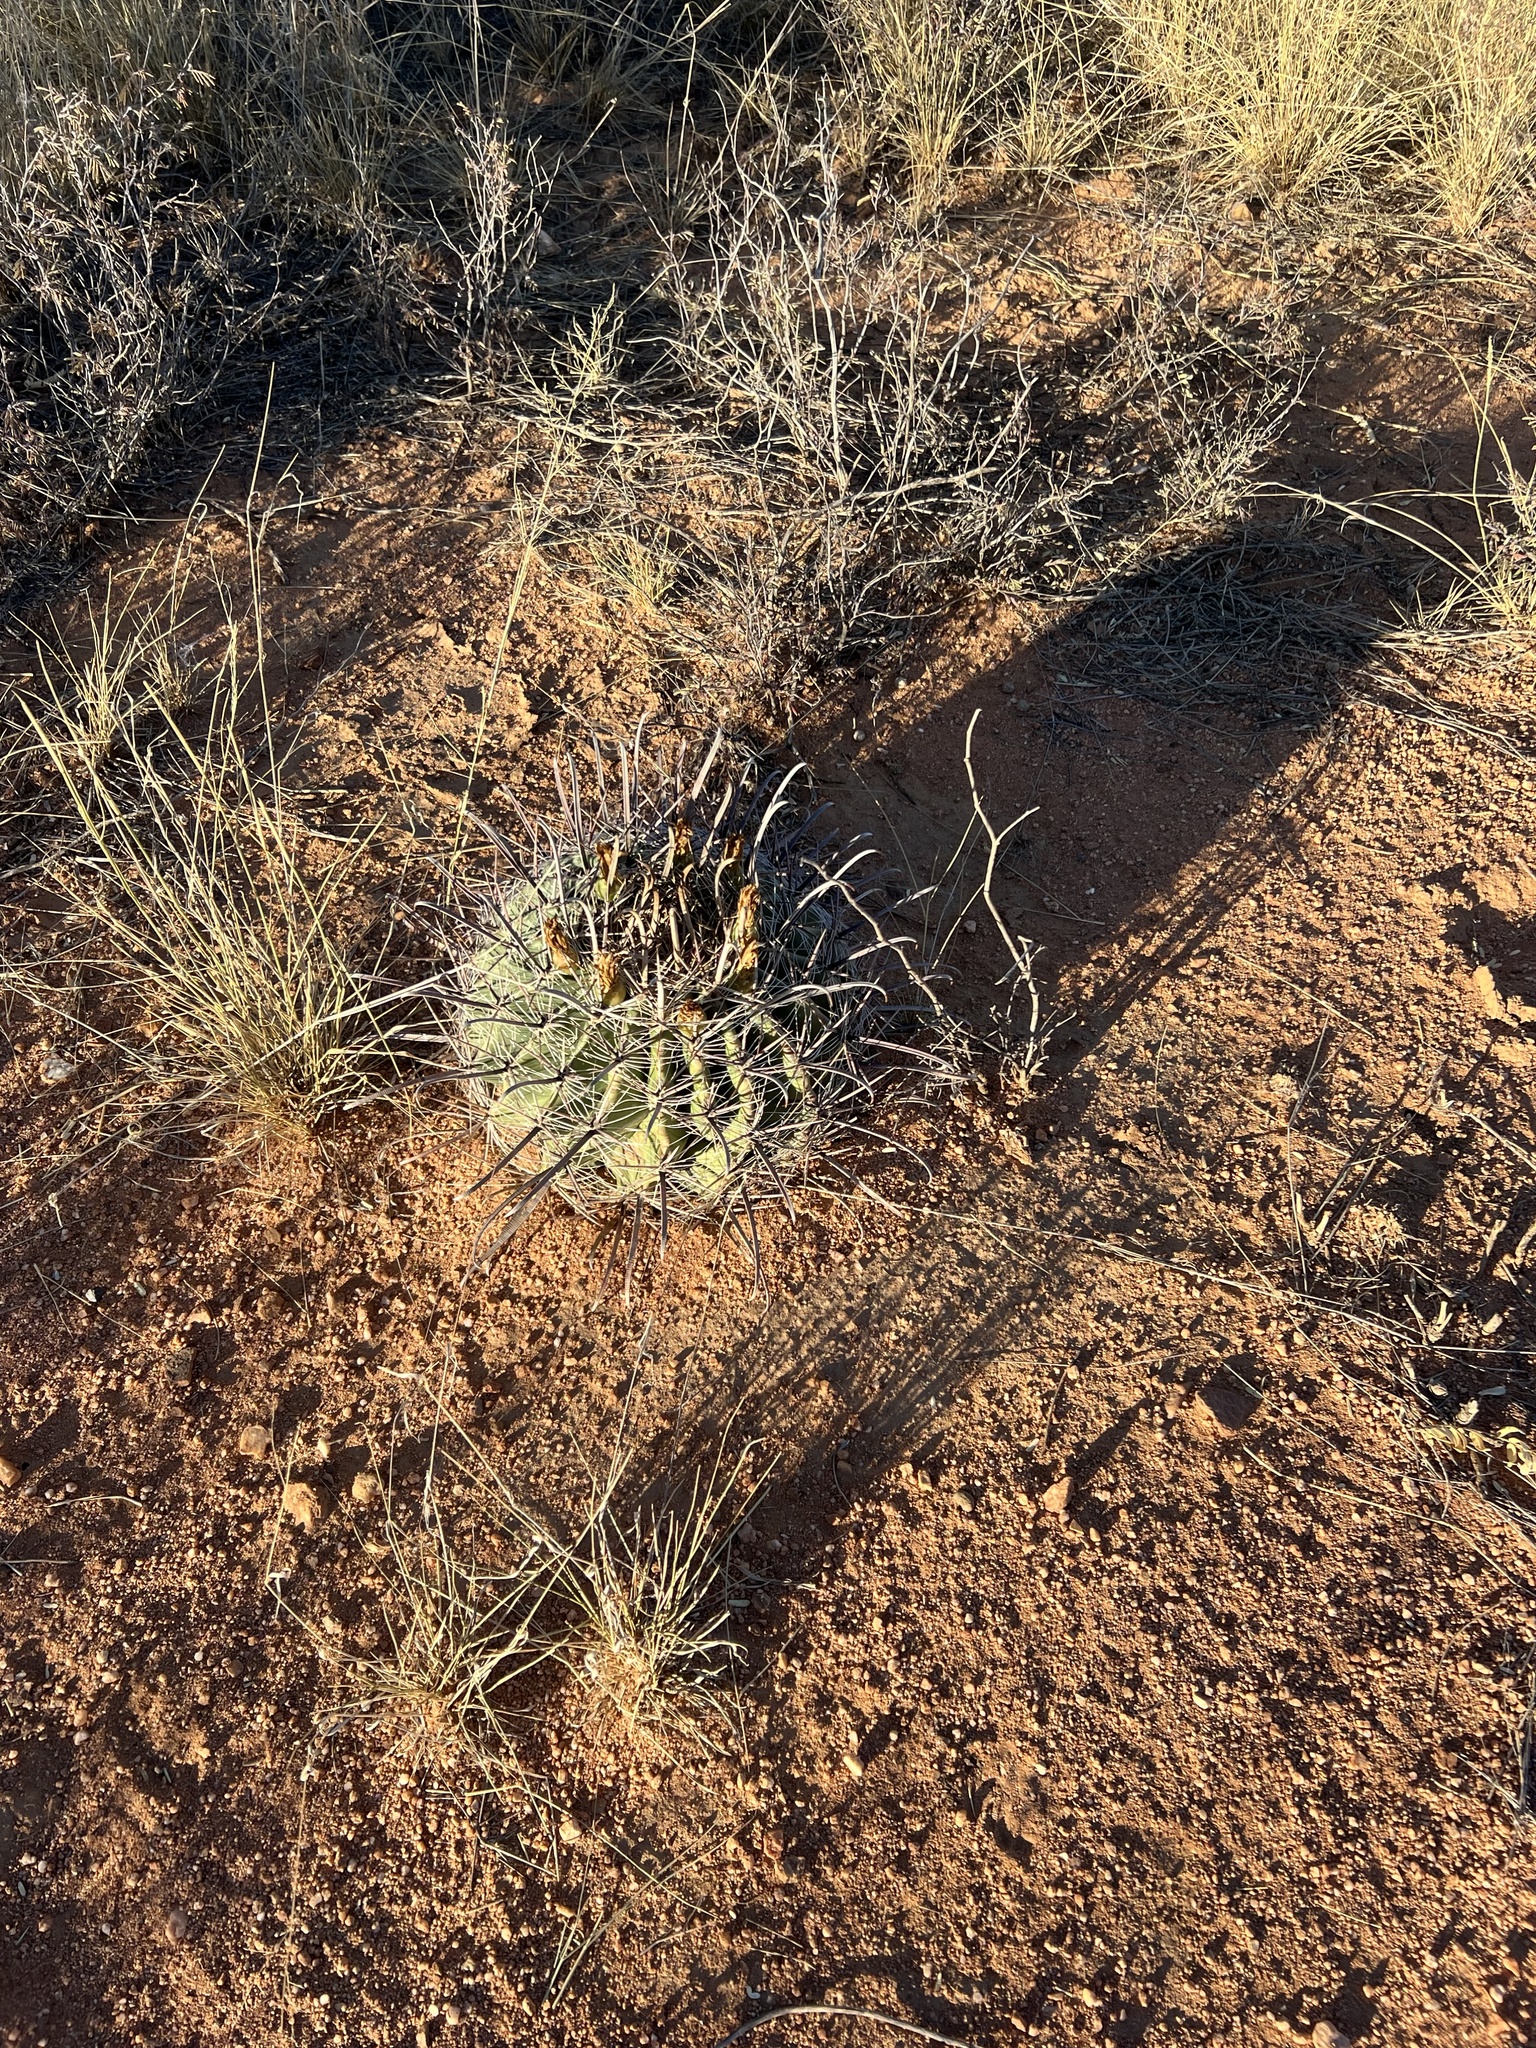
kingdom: Plantae
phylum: Tracheophyta
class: Magnoliopsida
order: Caryophyllales
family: Cactaceae
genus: Ferocactus
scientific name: Ferocactus wislizeni
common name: Candy barrel cactus
